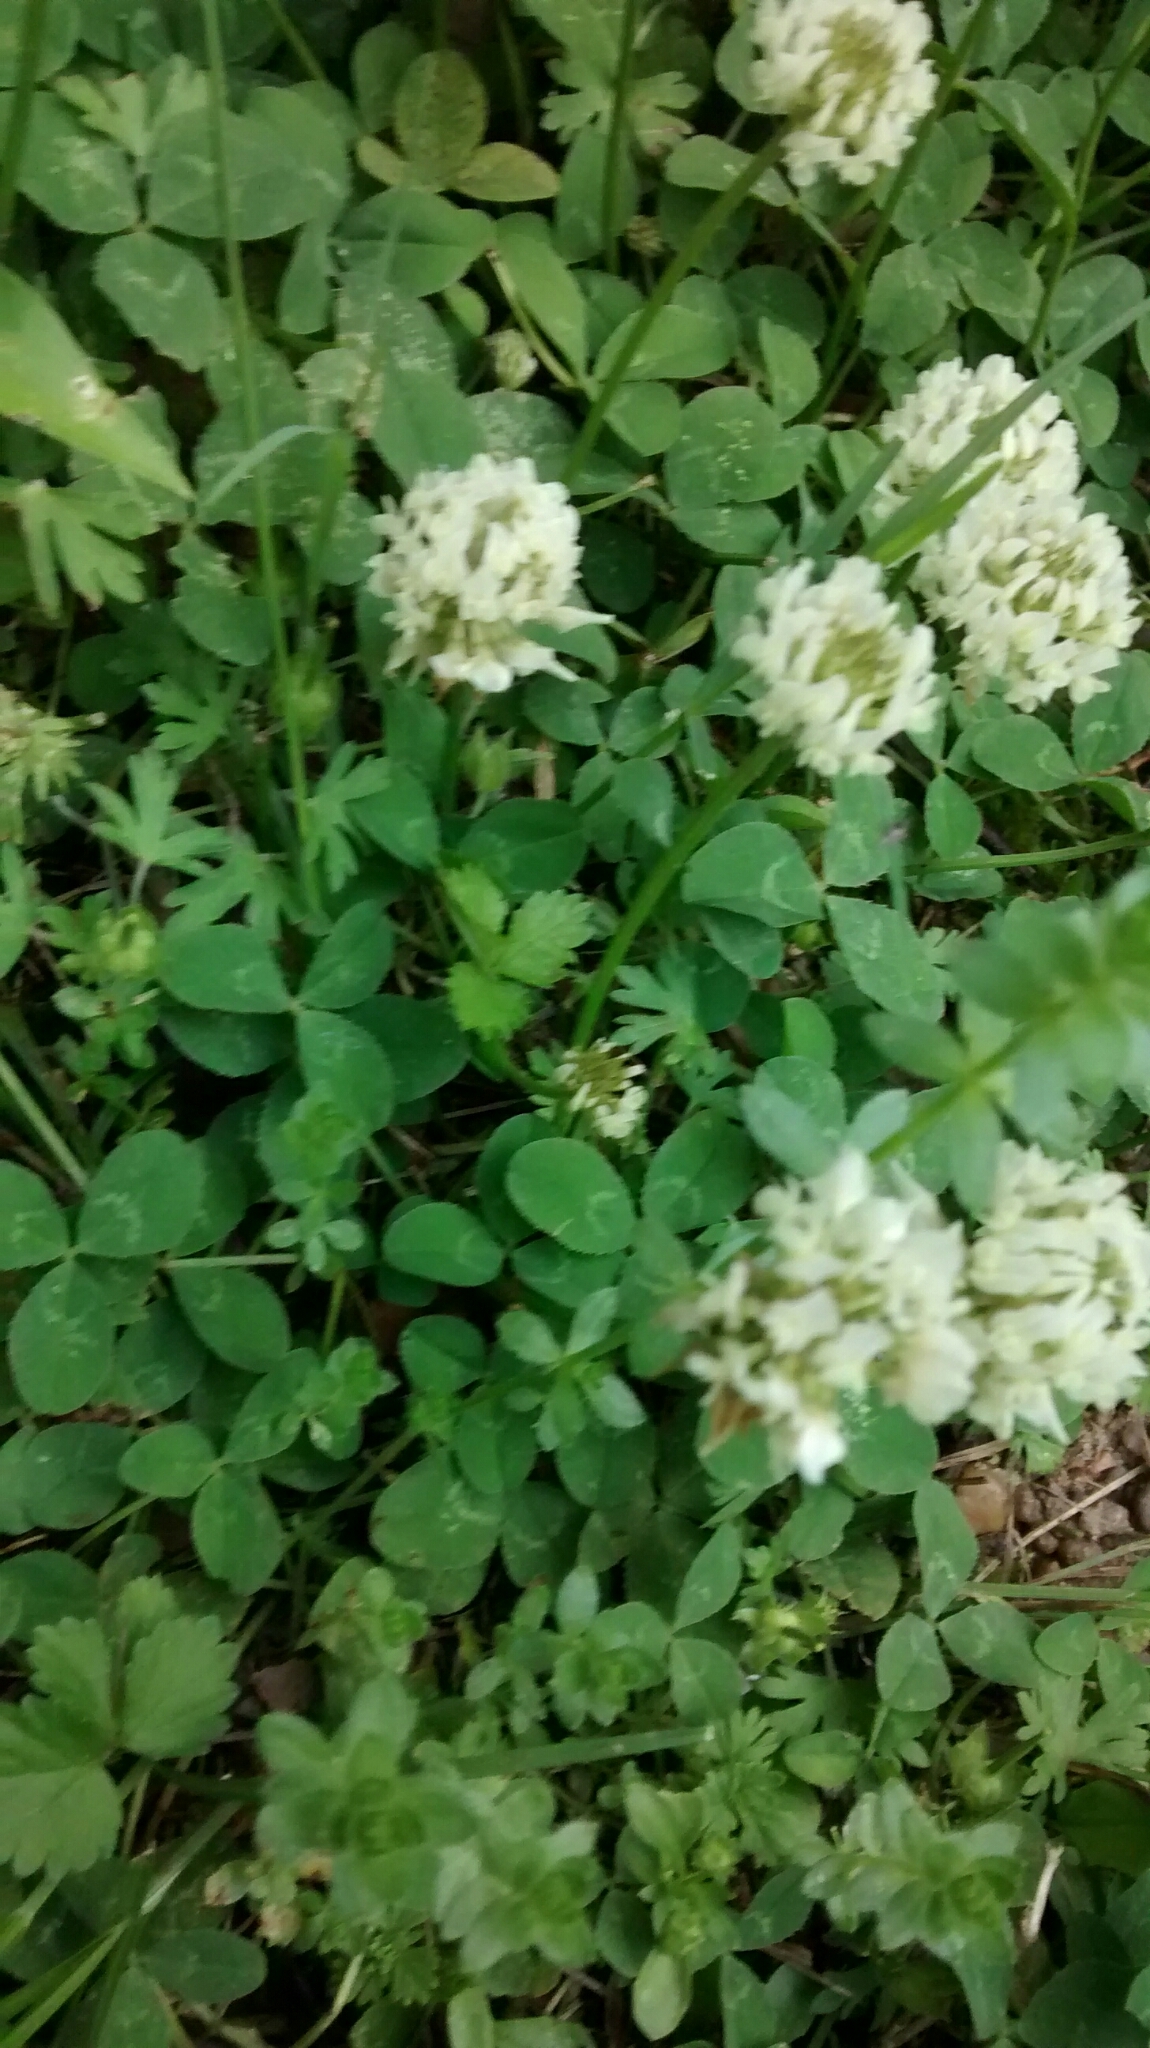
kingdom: Plantae
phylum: Tracheophyta
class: Magnoliopsida
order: Fabales
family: Fabaceae
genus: Trifolium
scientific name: Trifolium repens
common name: White clover
